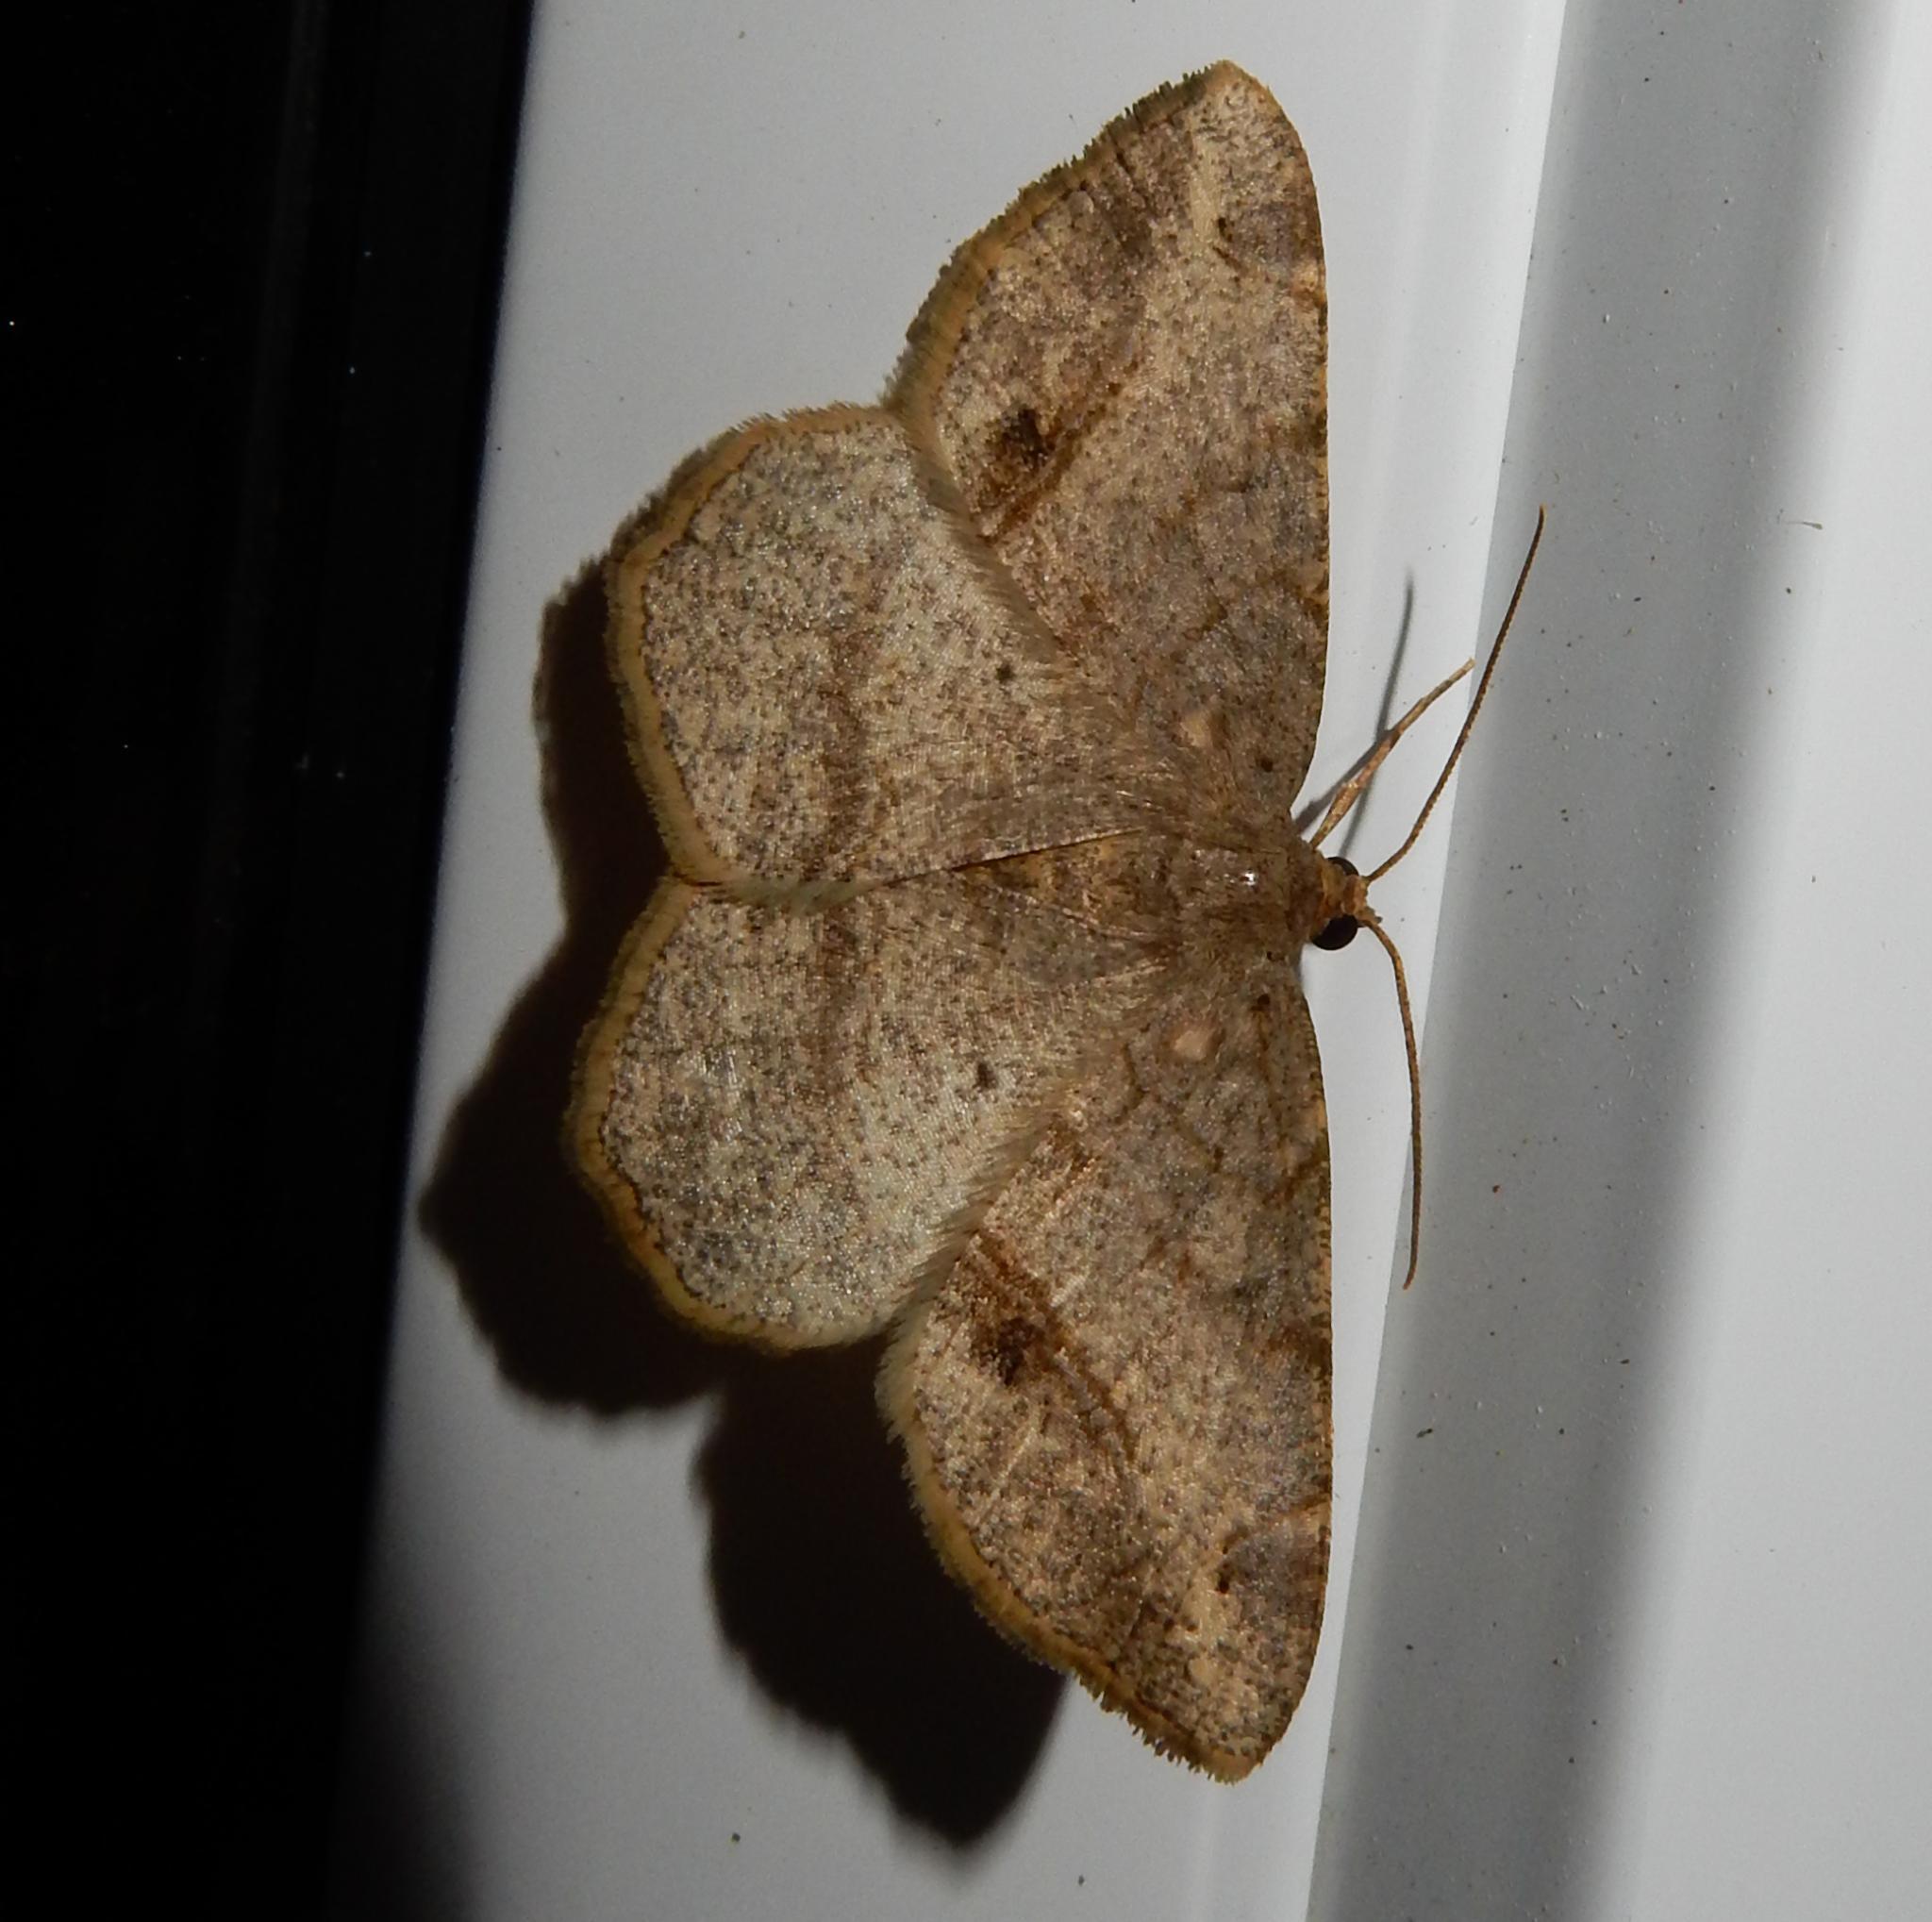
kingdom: Animalia
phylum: Arthropoda
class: Insecta
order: Lepidoptera
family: Geometridae
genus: Chiasmia
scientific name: Chiasmia brongusaria
